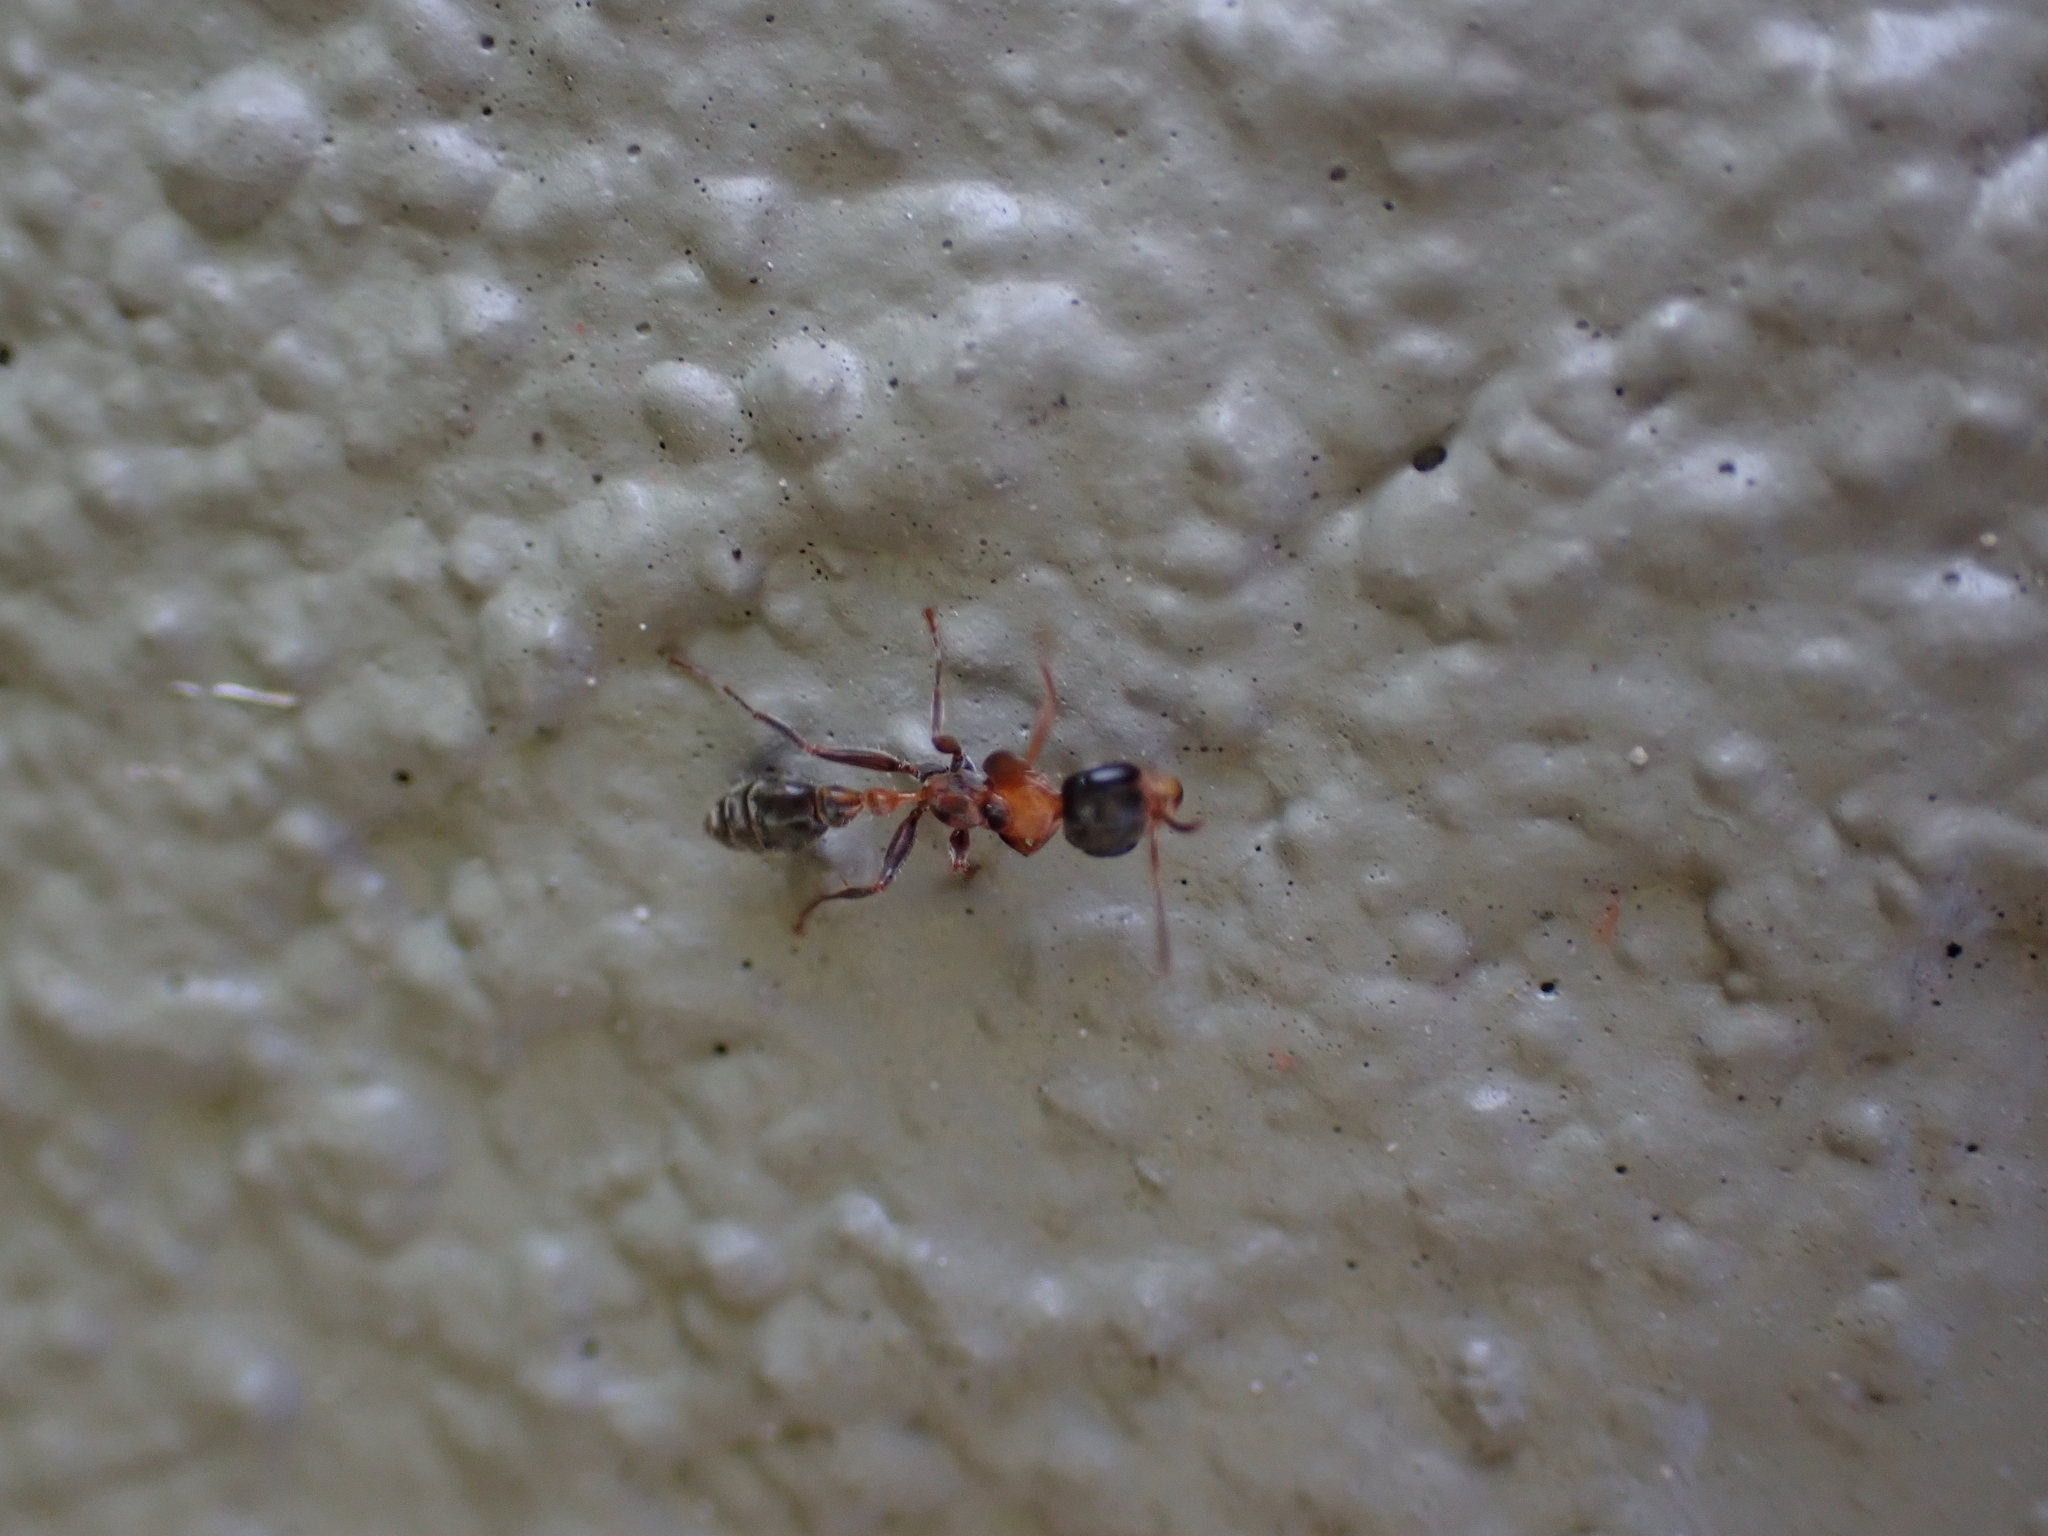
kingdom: Animalia
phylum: Arthropoda
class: Insecta
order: Hymenoptera
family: Formicidae
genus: Pseudomyrmex
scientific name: Pseudomyrmex gracilis
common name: Graceful twig ant
